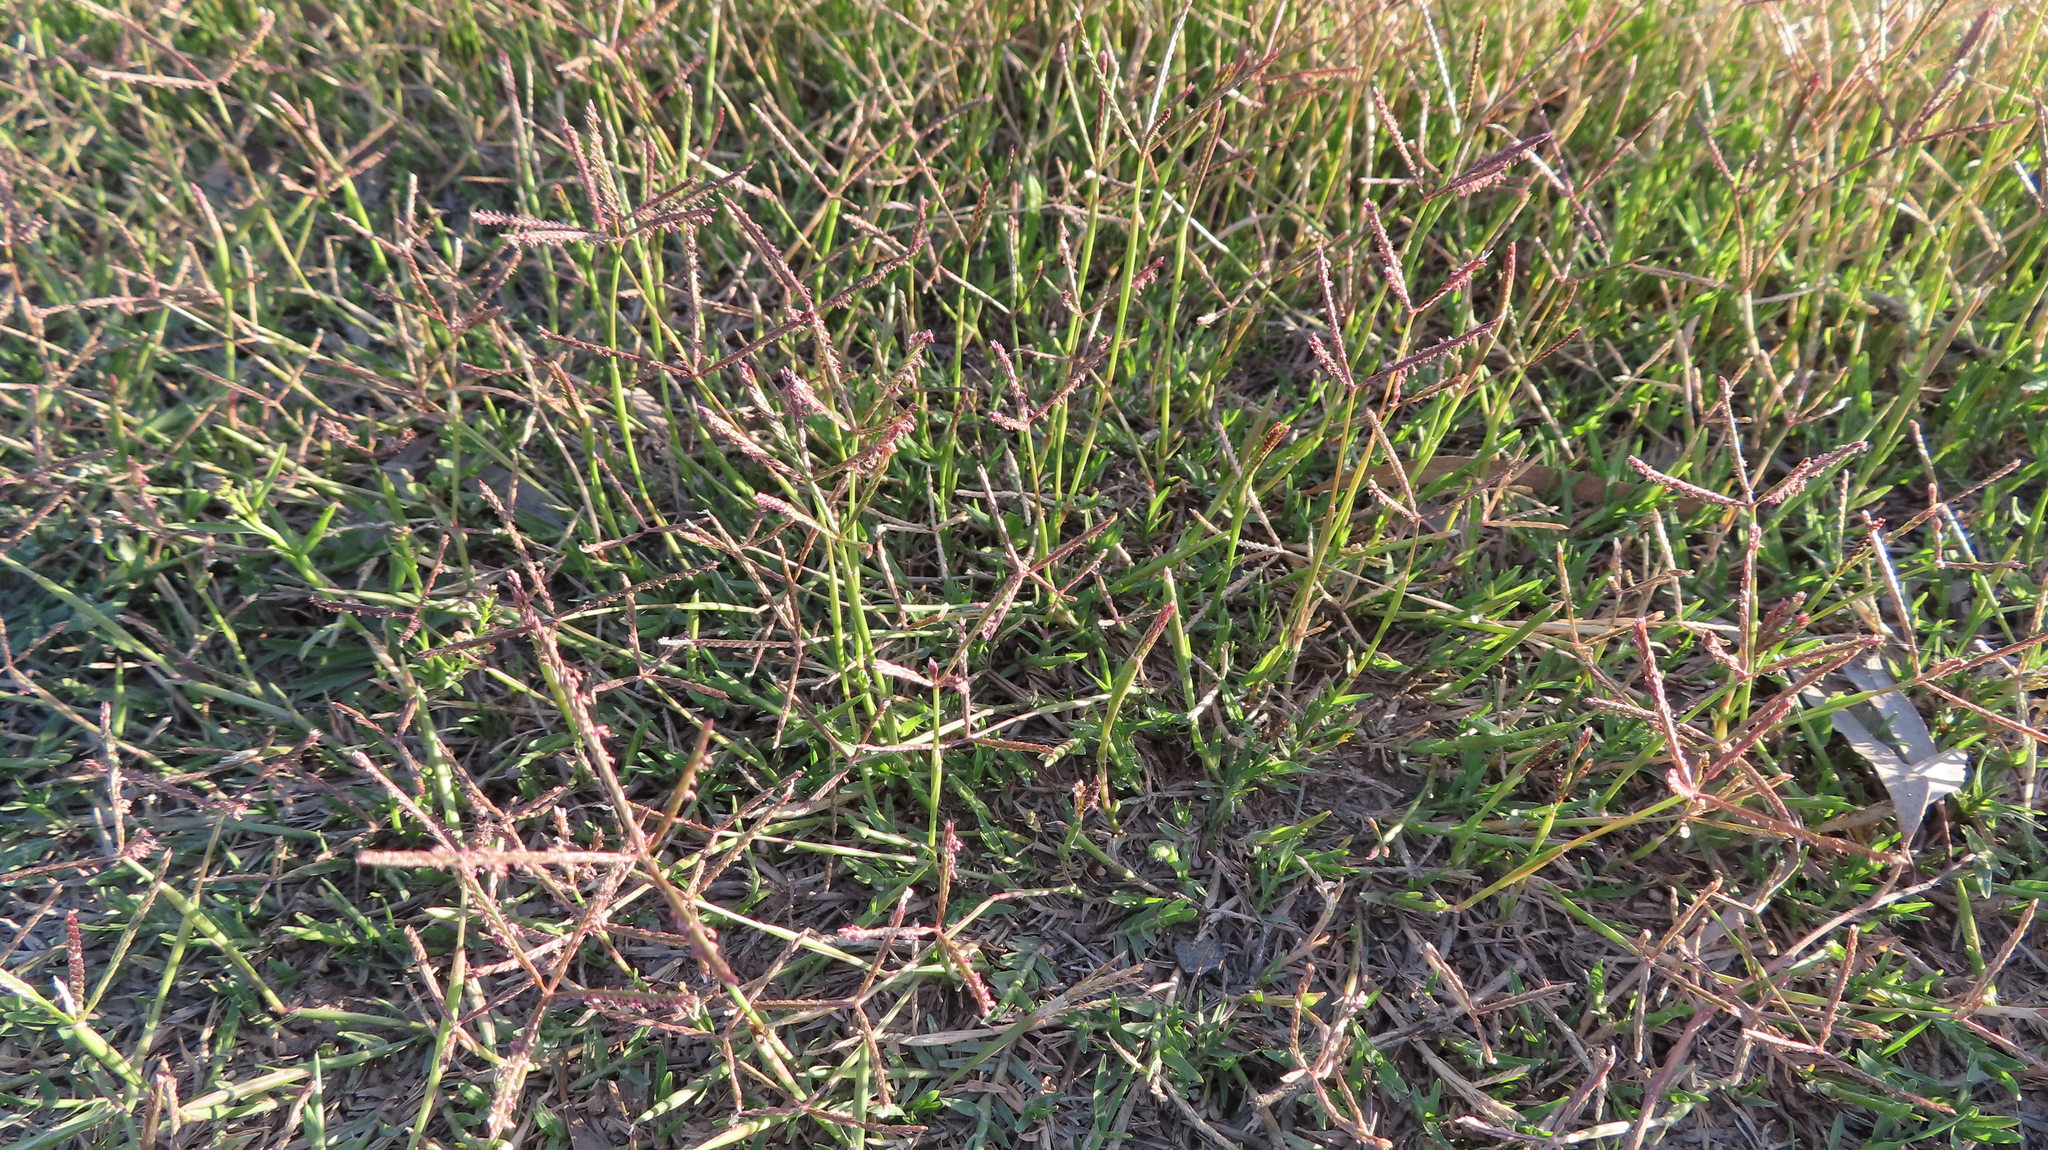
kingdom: Plantae
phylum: Tracheophyta
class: Liliopsida
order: Poales
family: Poaceae
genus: Cynodon
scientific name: Cynodon dactylon
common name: Bermuda grass
